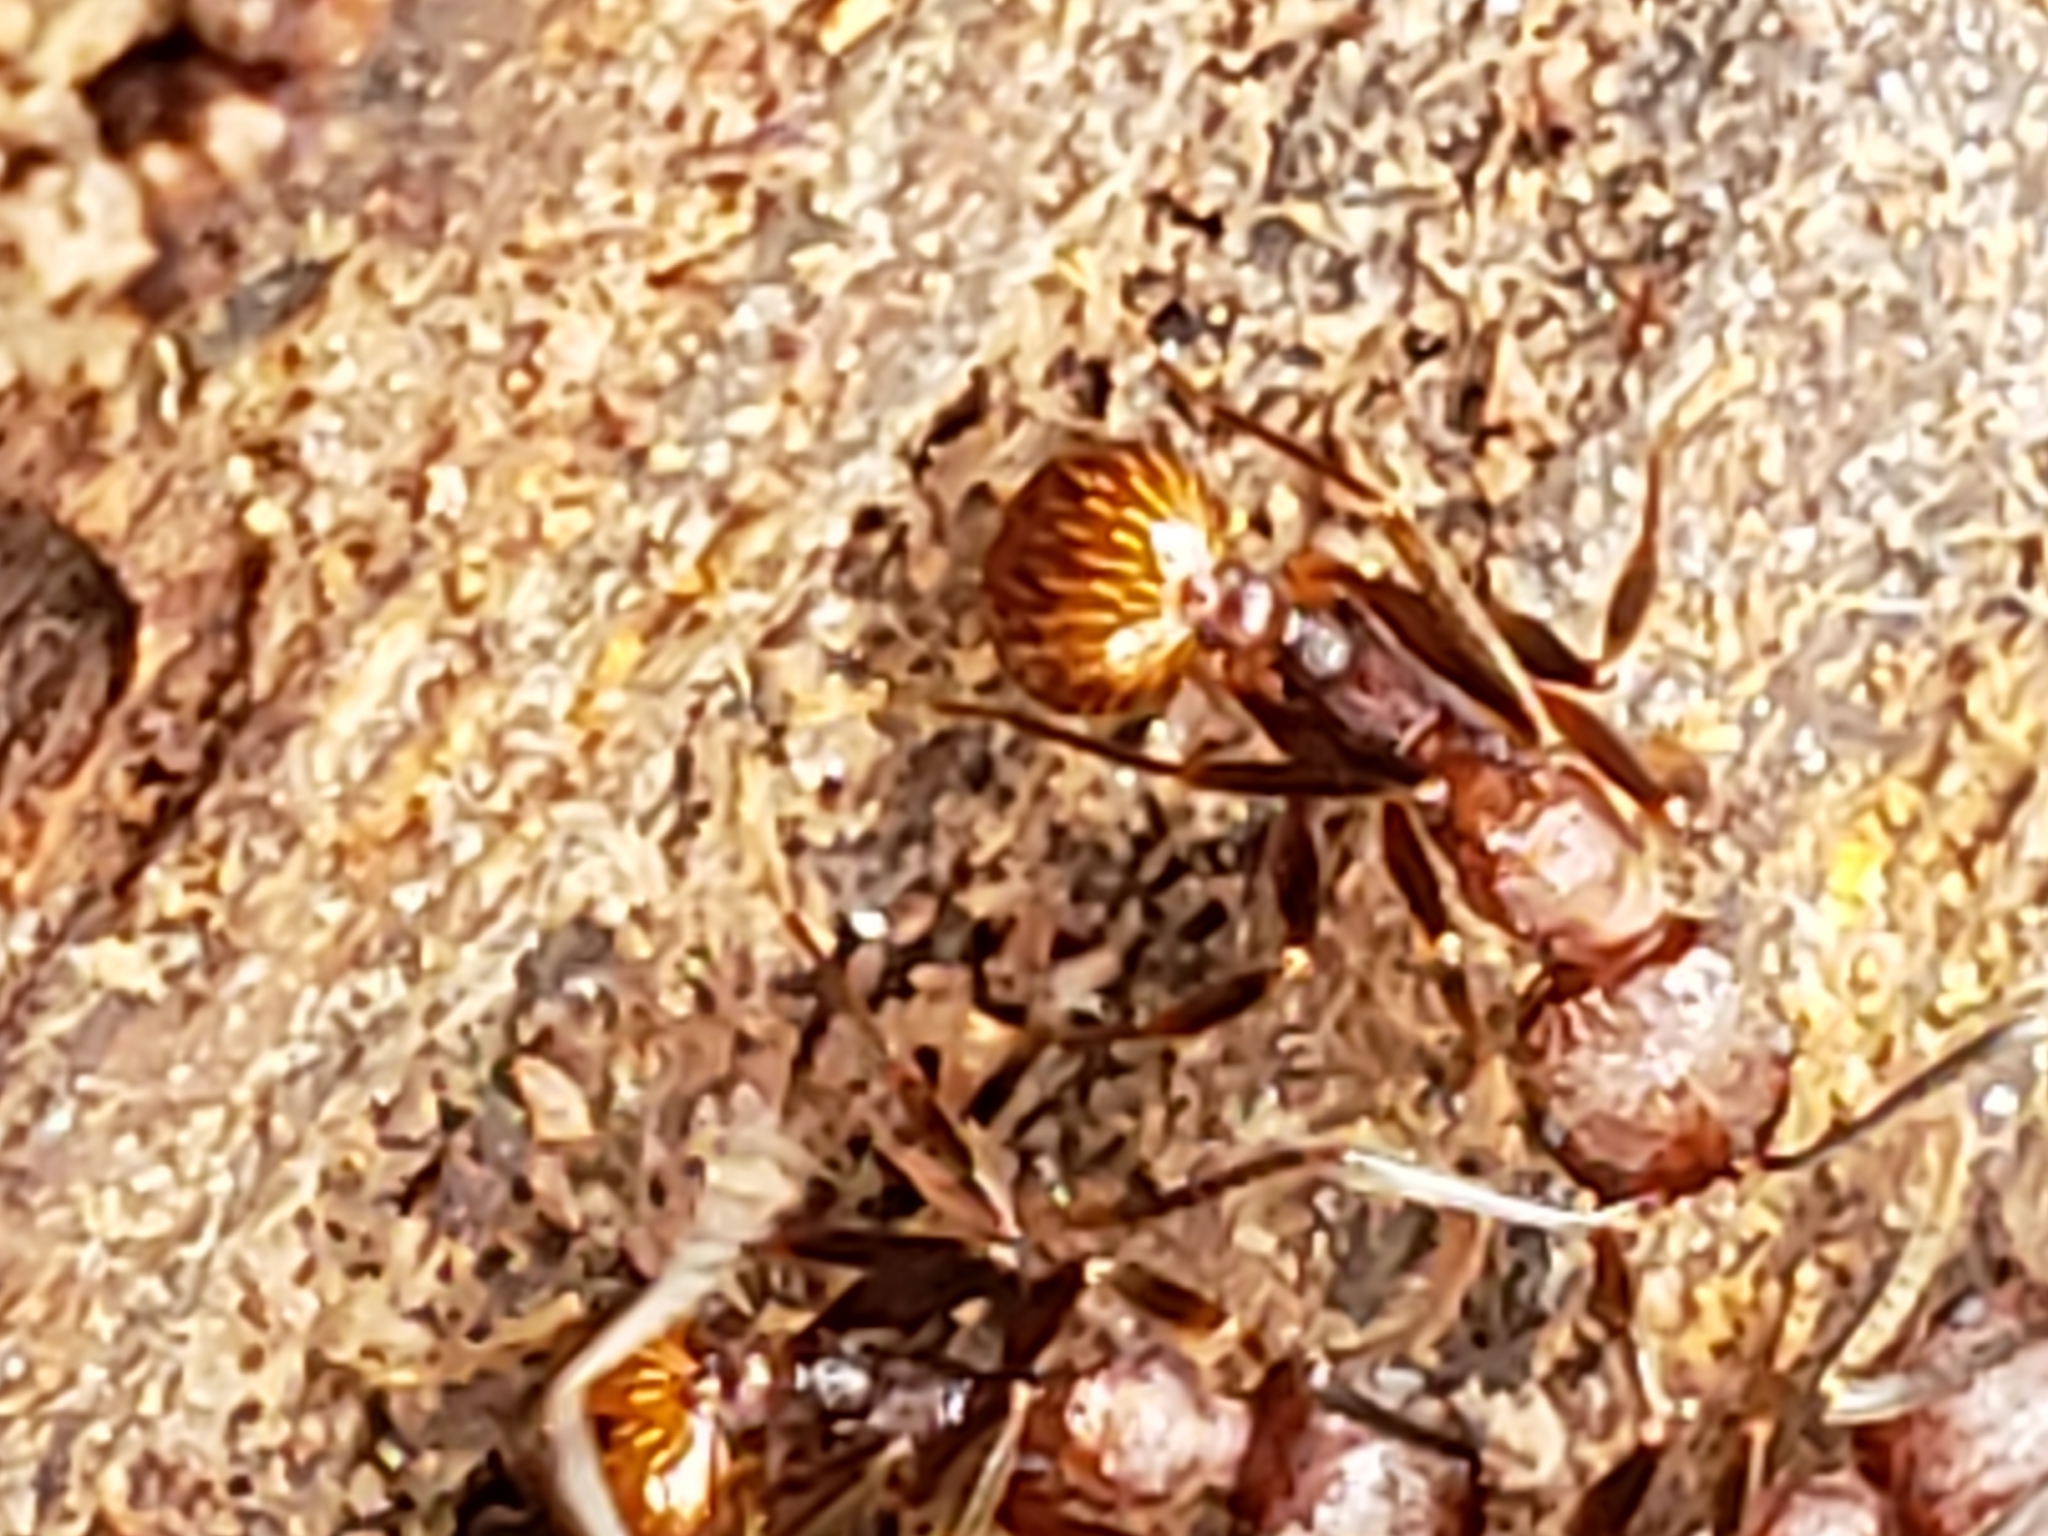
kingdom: Animalia
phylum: Arthropoda
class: Insecta
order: Hymenoptera
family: Formicidae
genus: Aphaenogaster
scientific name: Aphaenogaster fulva
